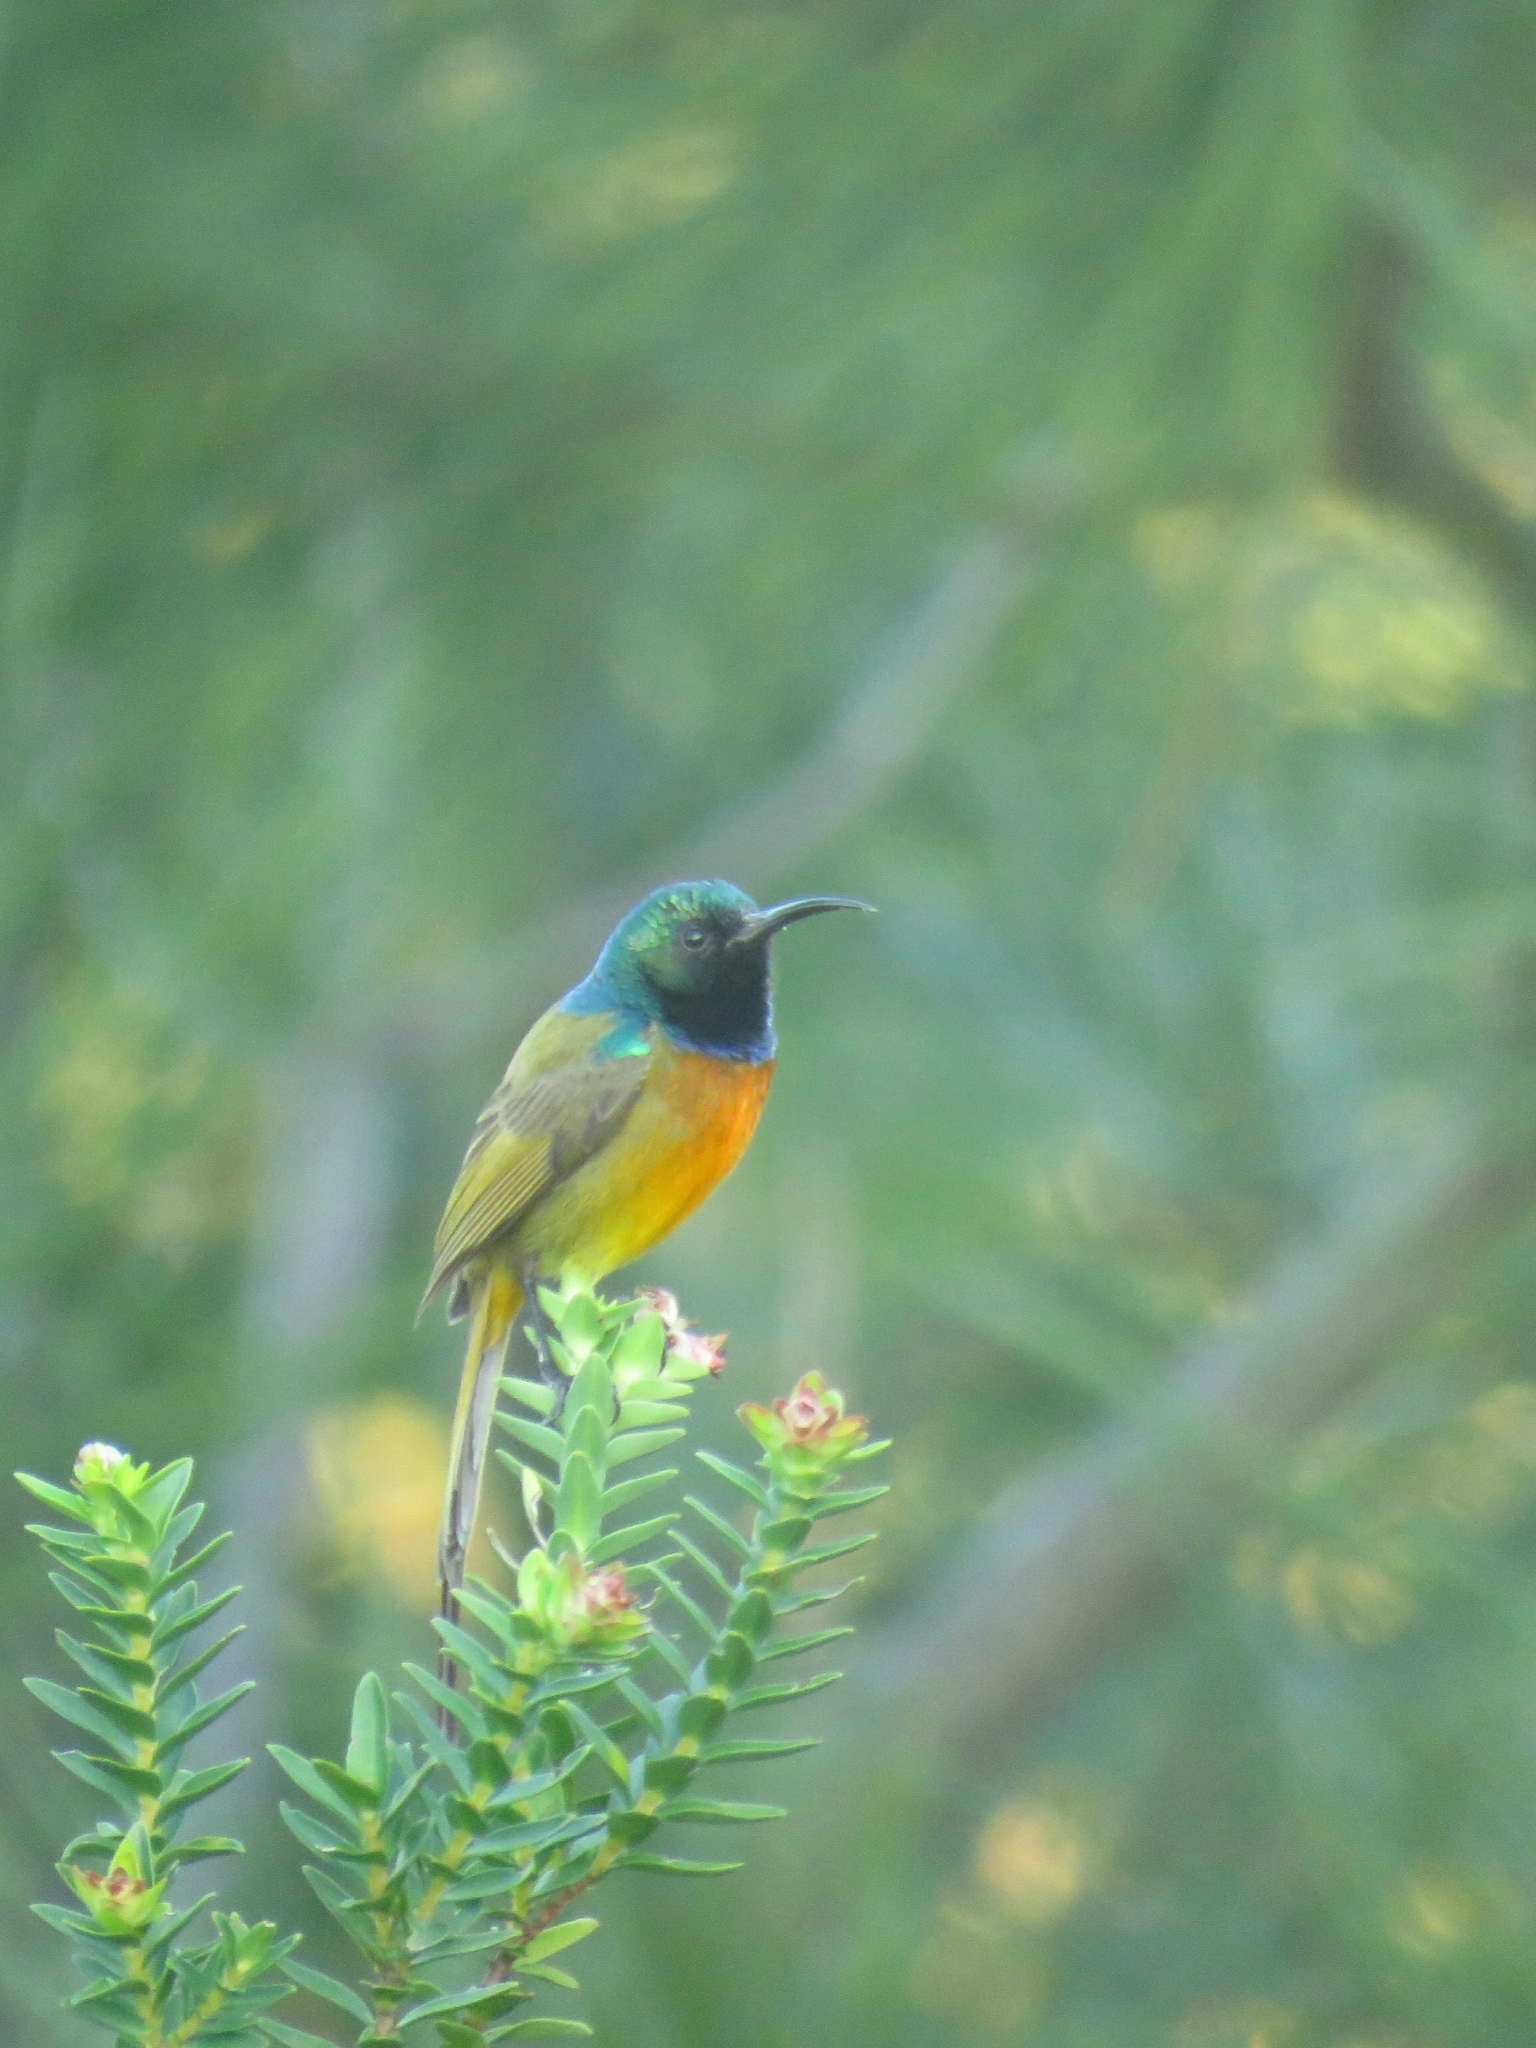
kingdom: Animalia
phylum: Chordata
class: Aves
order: Passeriformes
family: Nectariniidae
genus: Anthobaphes
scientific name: Anthobaphes violacea
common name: Orange-breasted sunbird
